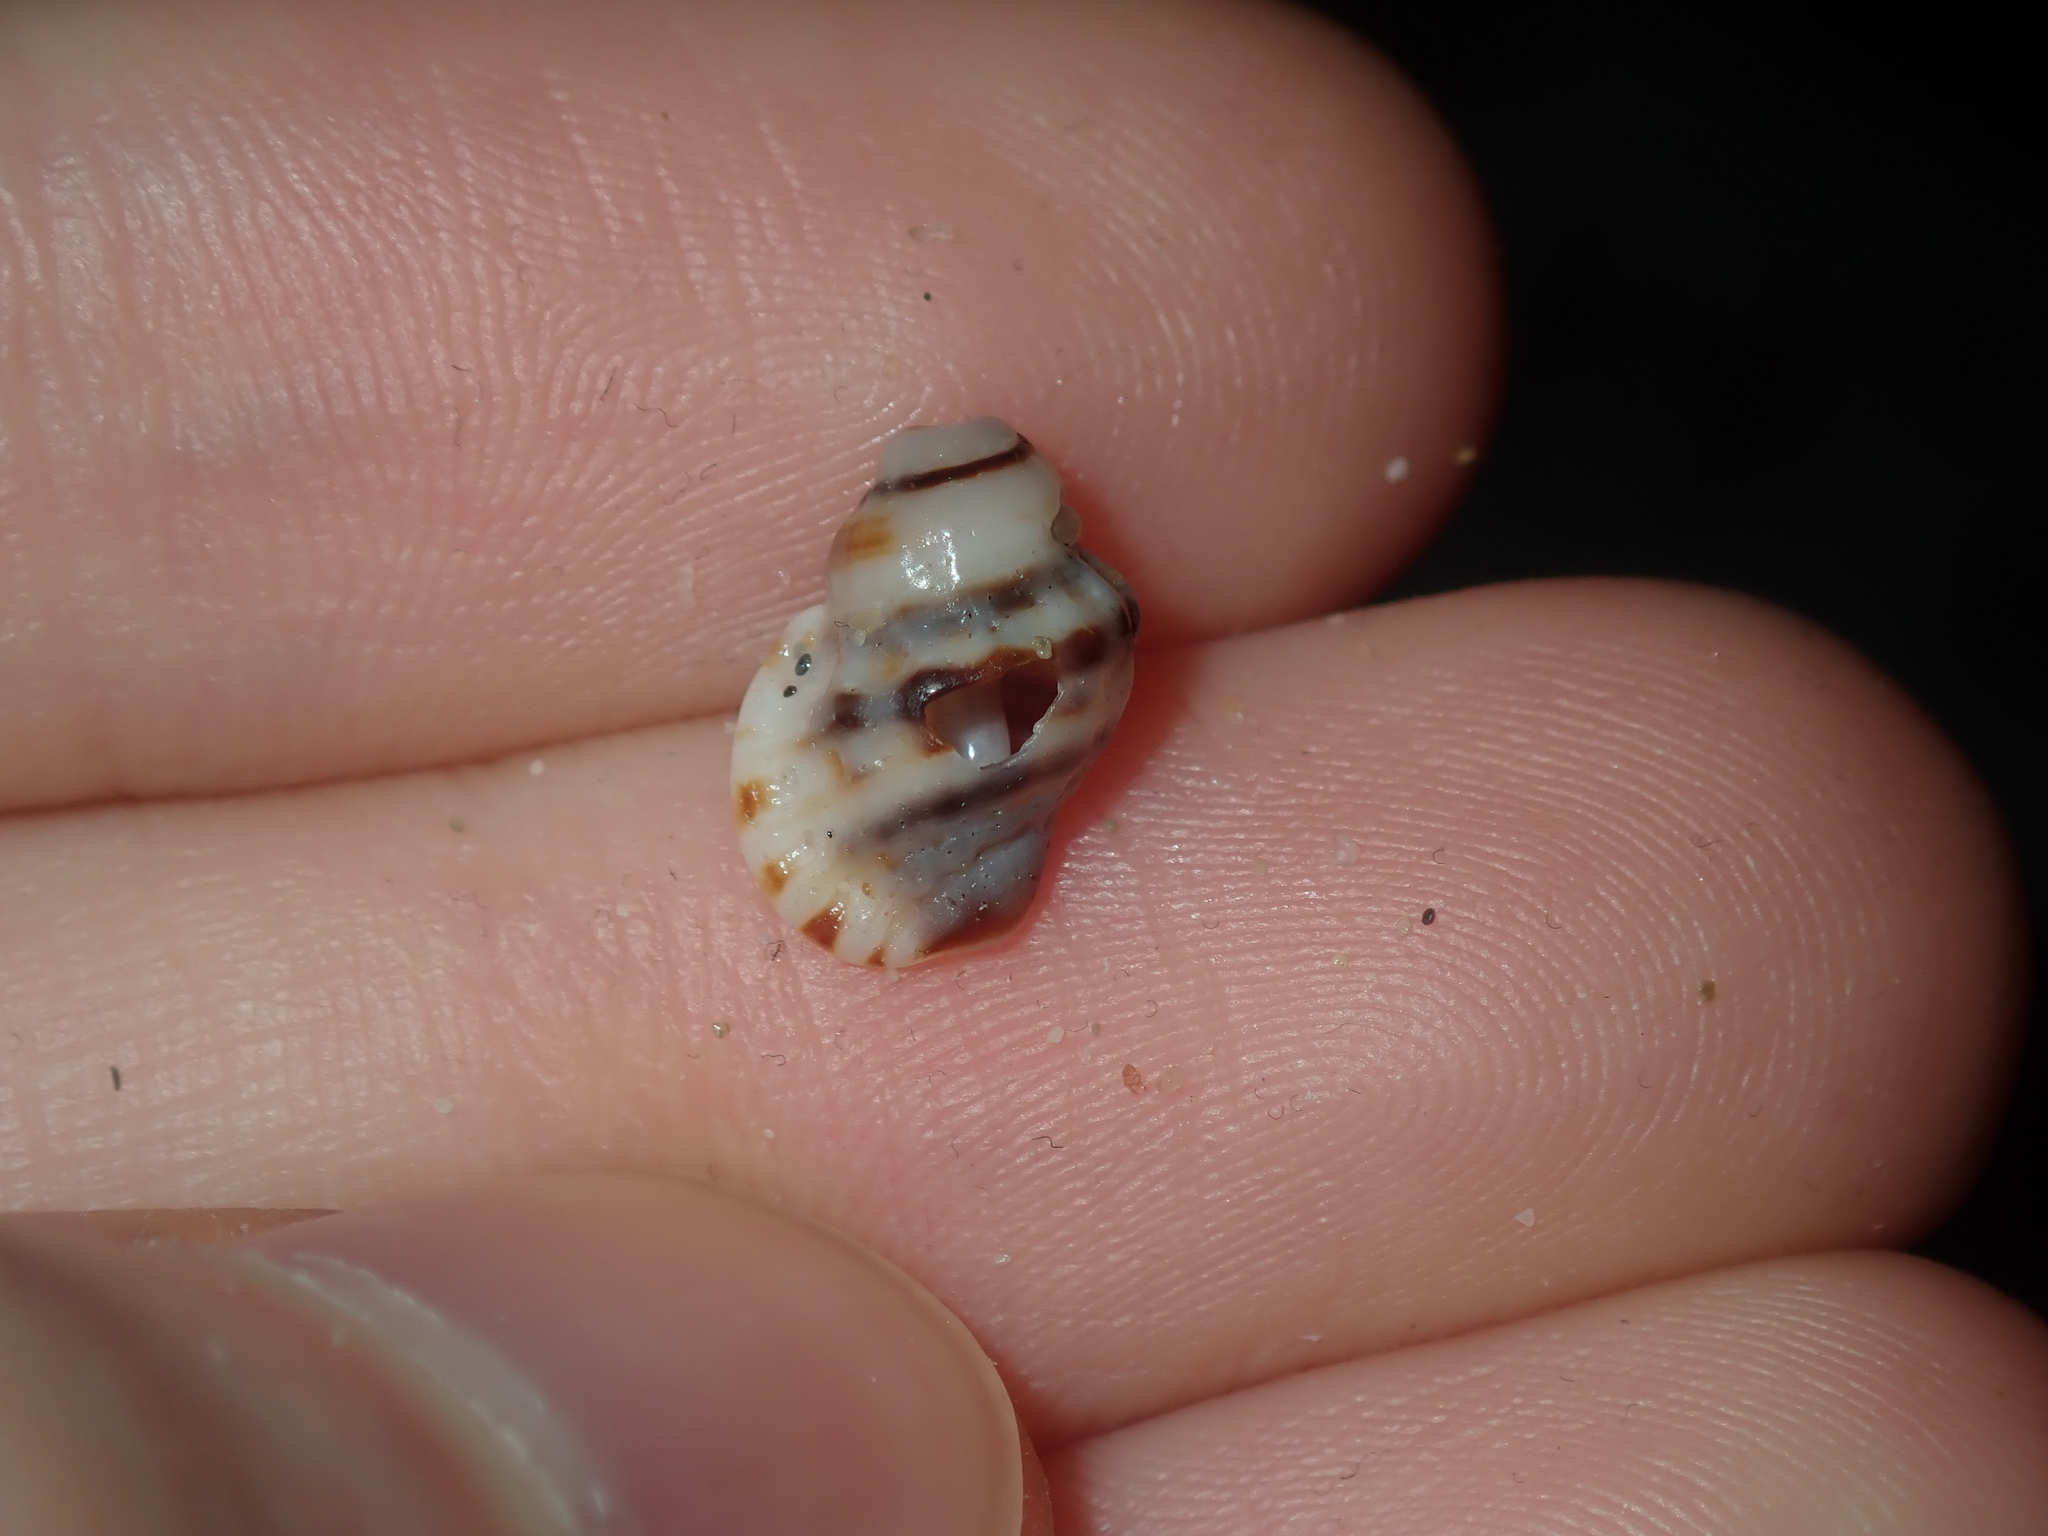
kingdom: Animalia
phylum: Mollusca
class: Gastropoda
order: Littorinimorpha
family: Cymatiidae
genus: Turritriton
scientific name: Turritriton labiosus
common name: Lip triton
